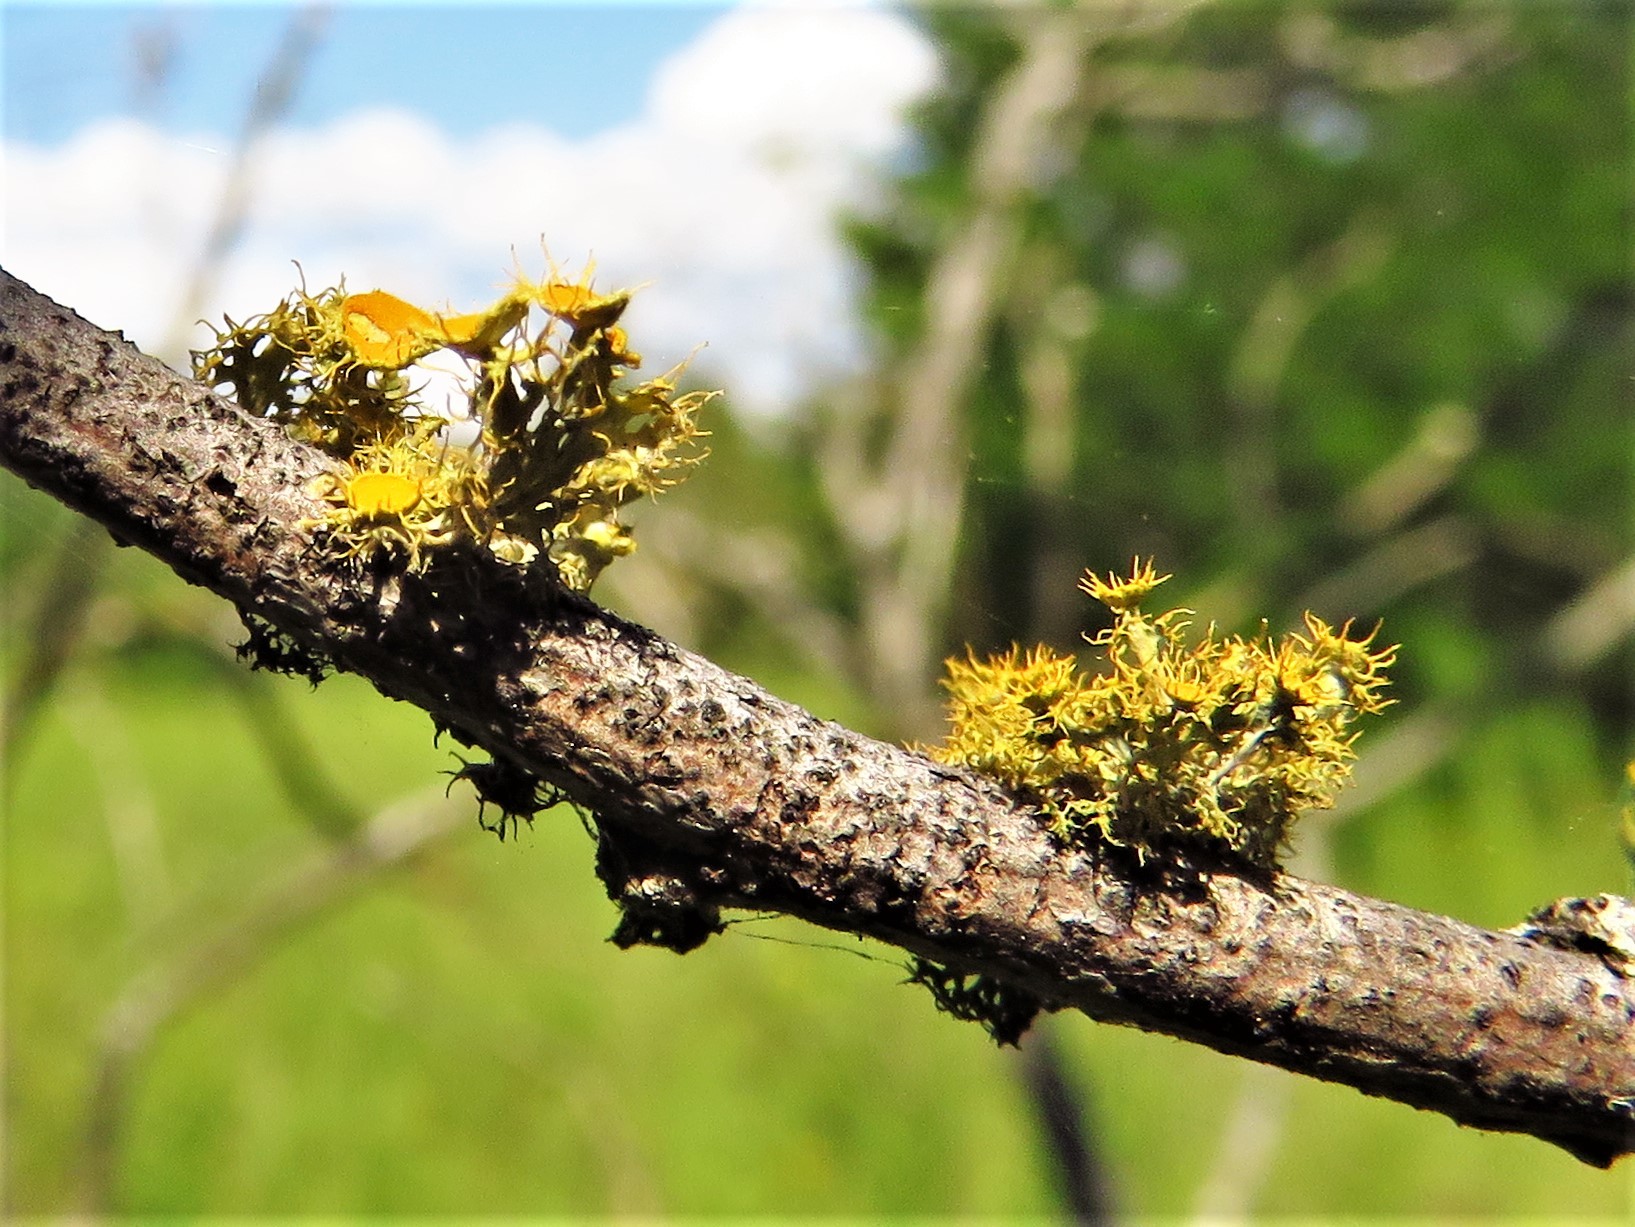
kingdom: Fungi
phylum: Ascomycota
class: Lecanoromycetes
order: Teloschistales
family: Teloschistaceae
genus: Niorma
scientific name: Niorma chrysophthalma
